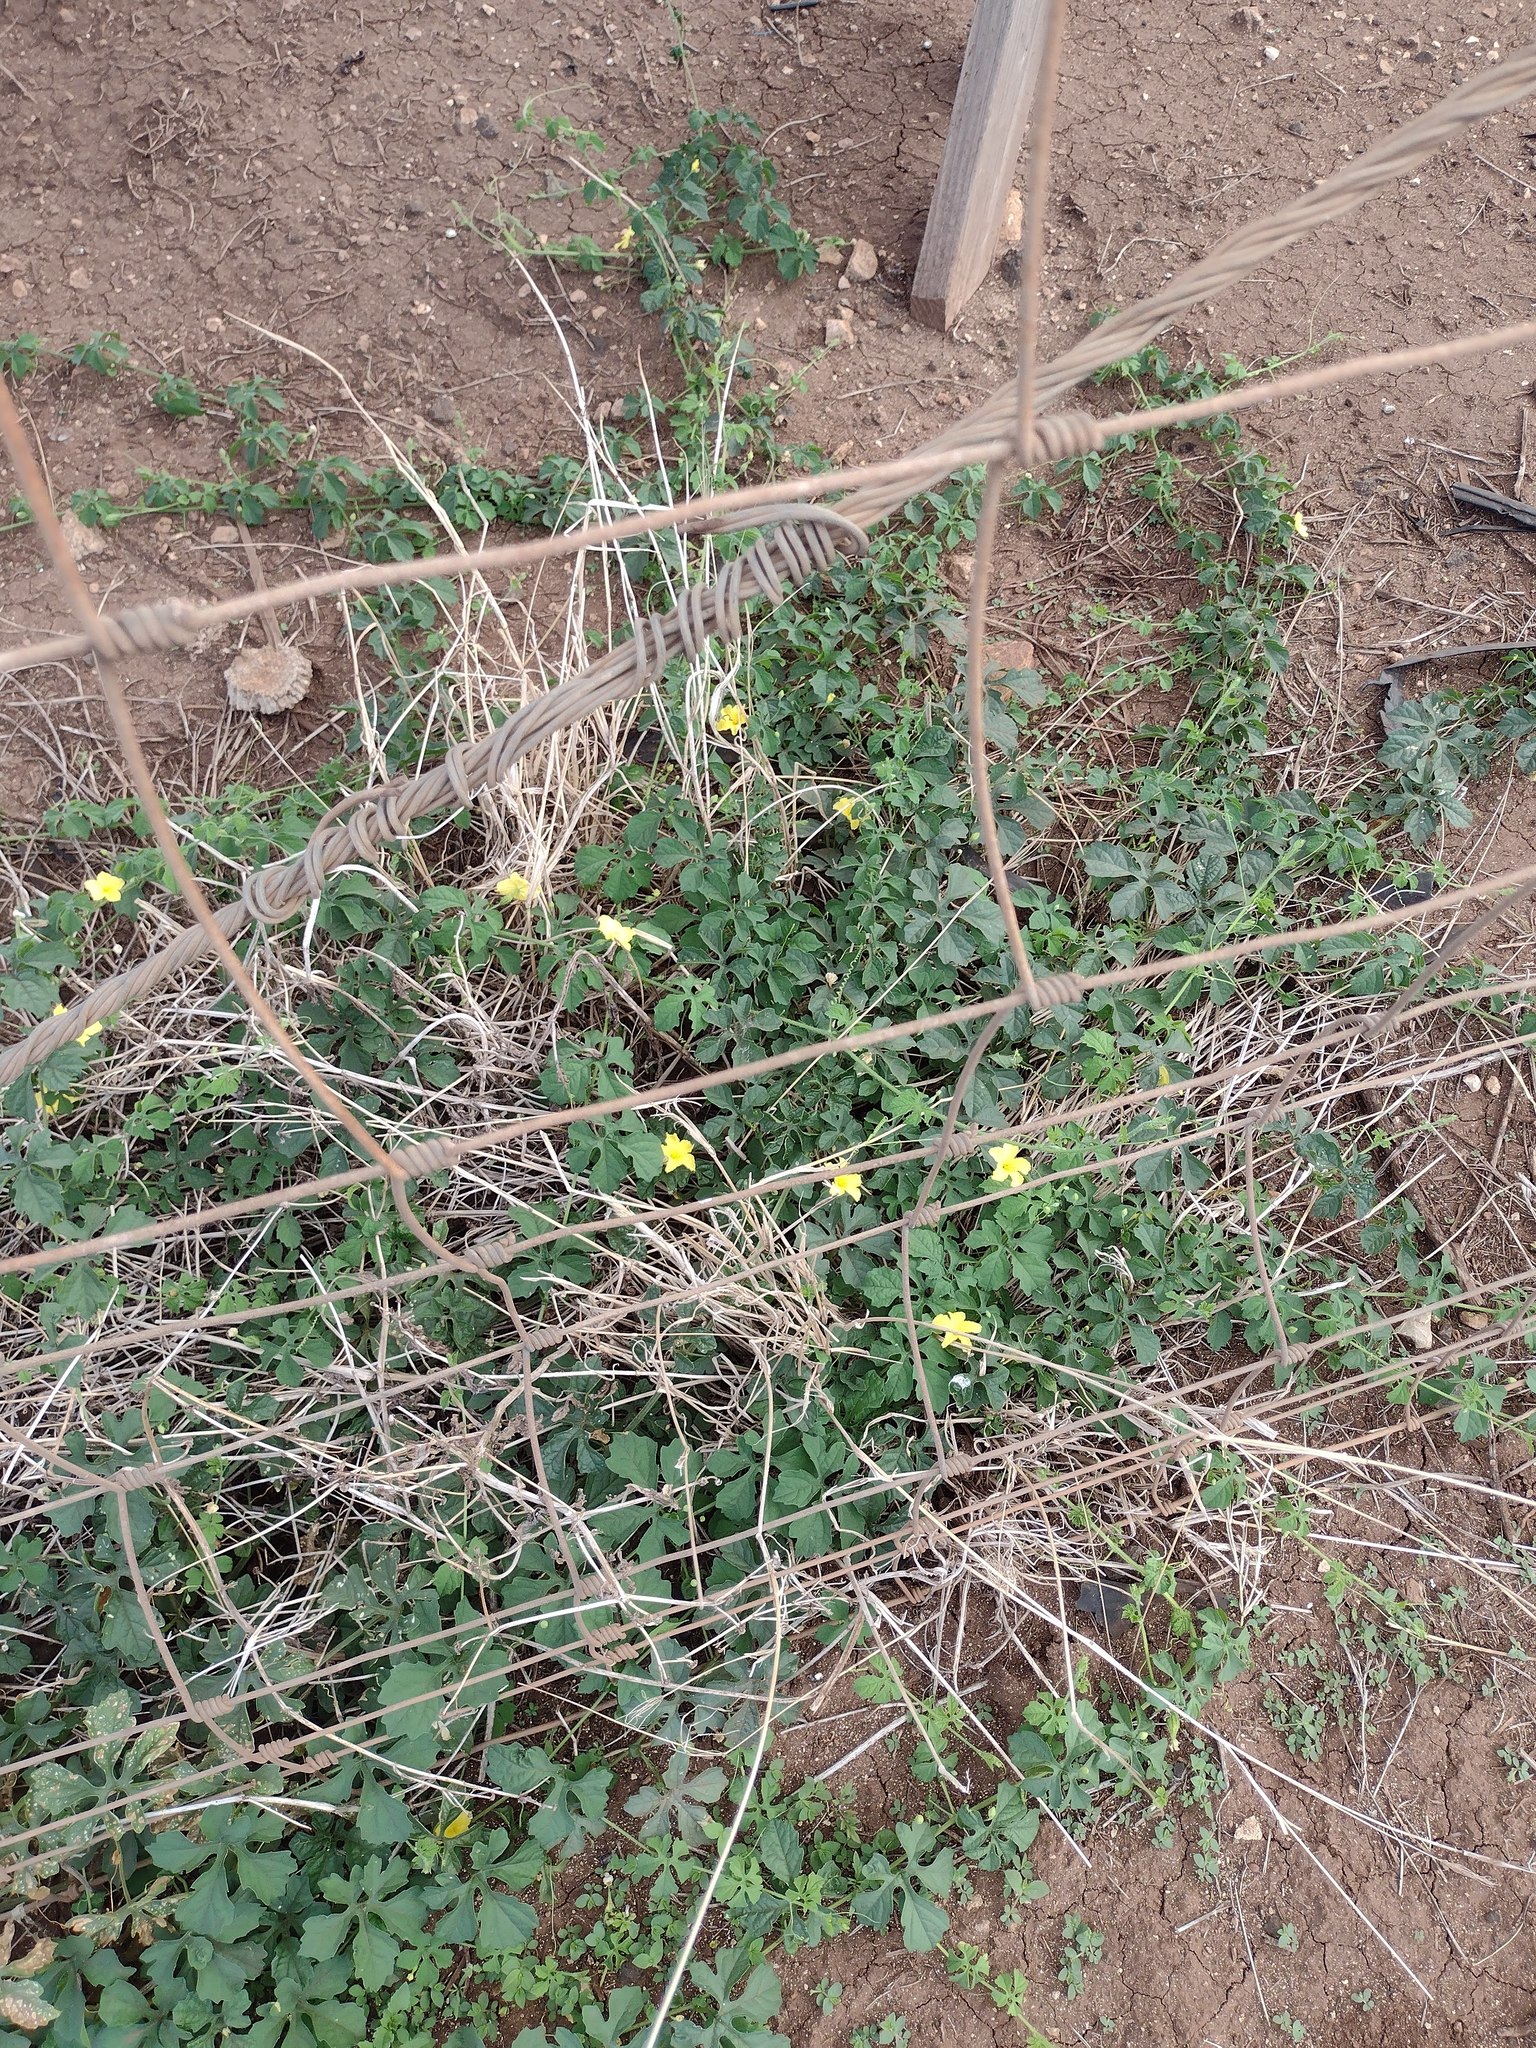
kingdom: Plantae
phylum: Tracheophyta
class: Magnoliopsida
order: Cucurbitales
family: Cucurbitaceae
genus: Momordica
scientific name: Momordica charantia
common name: Balsampear
